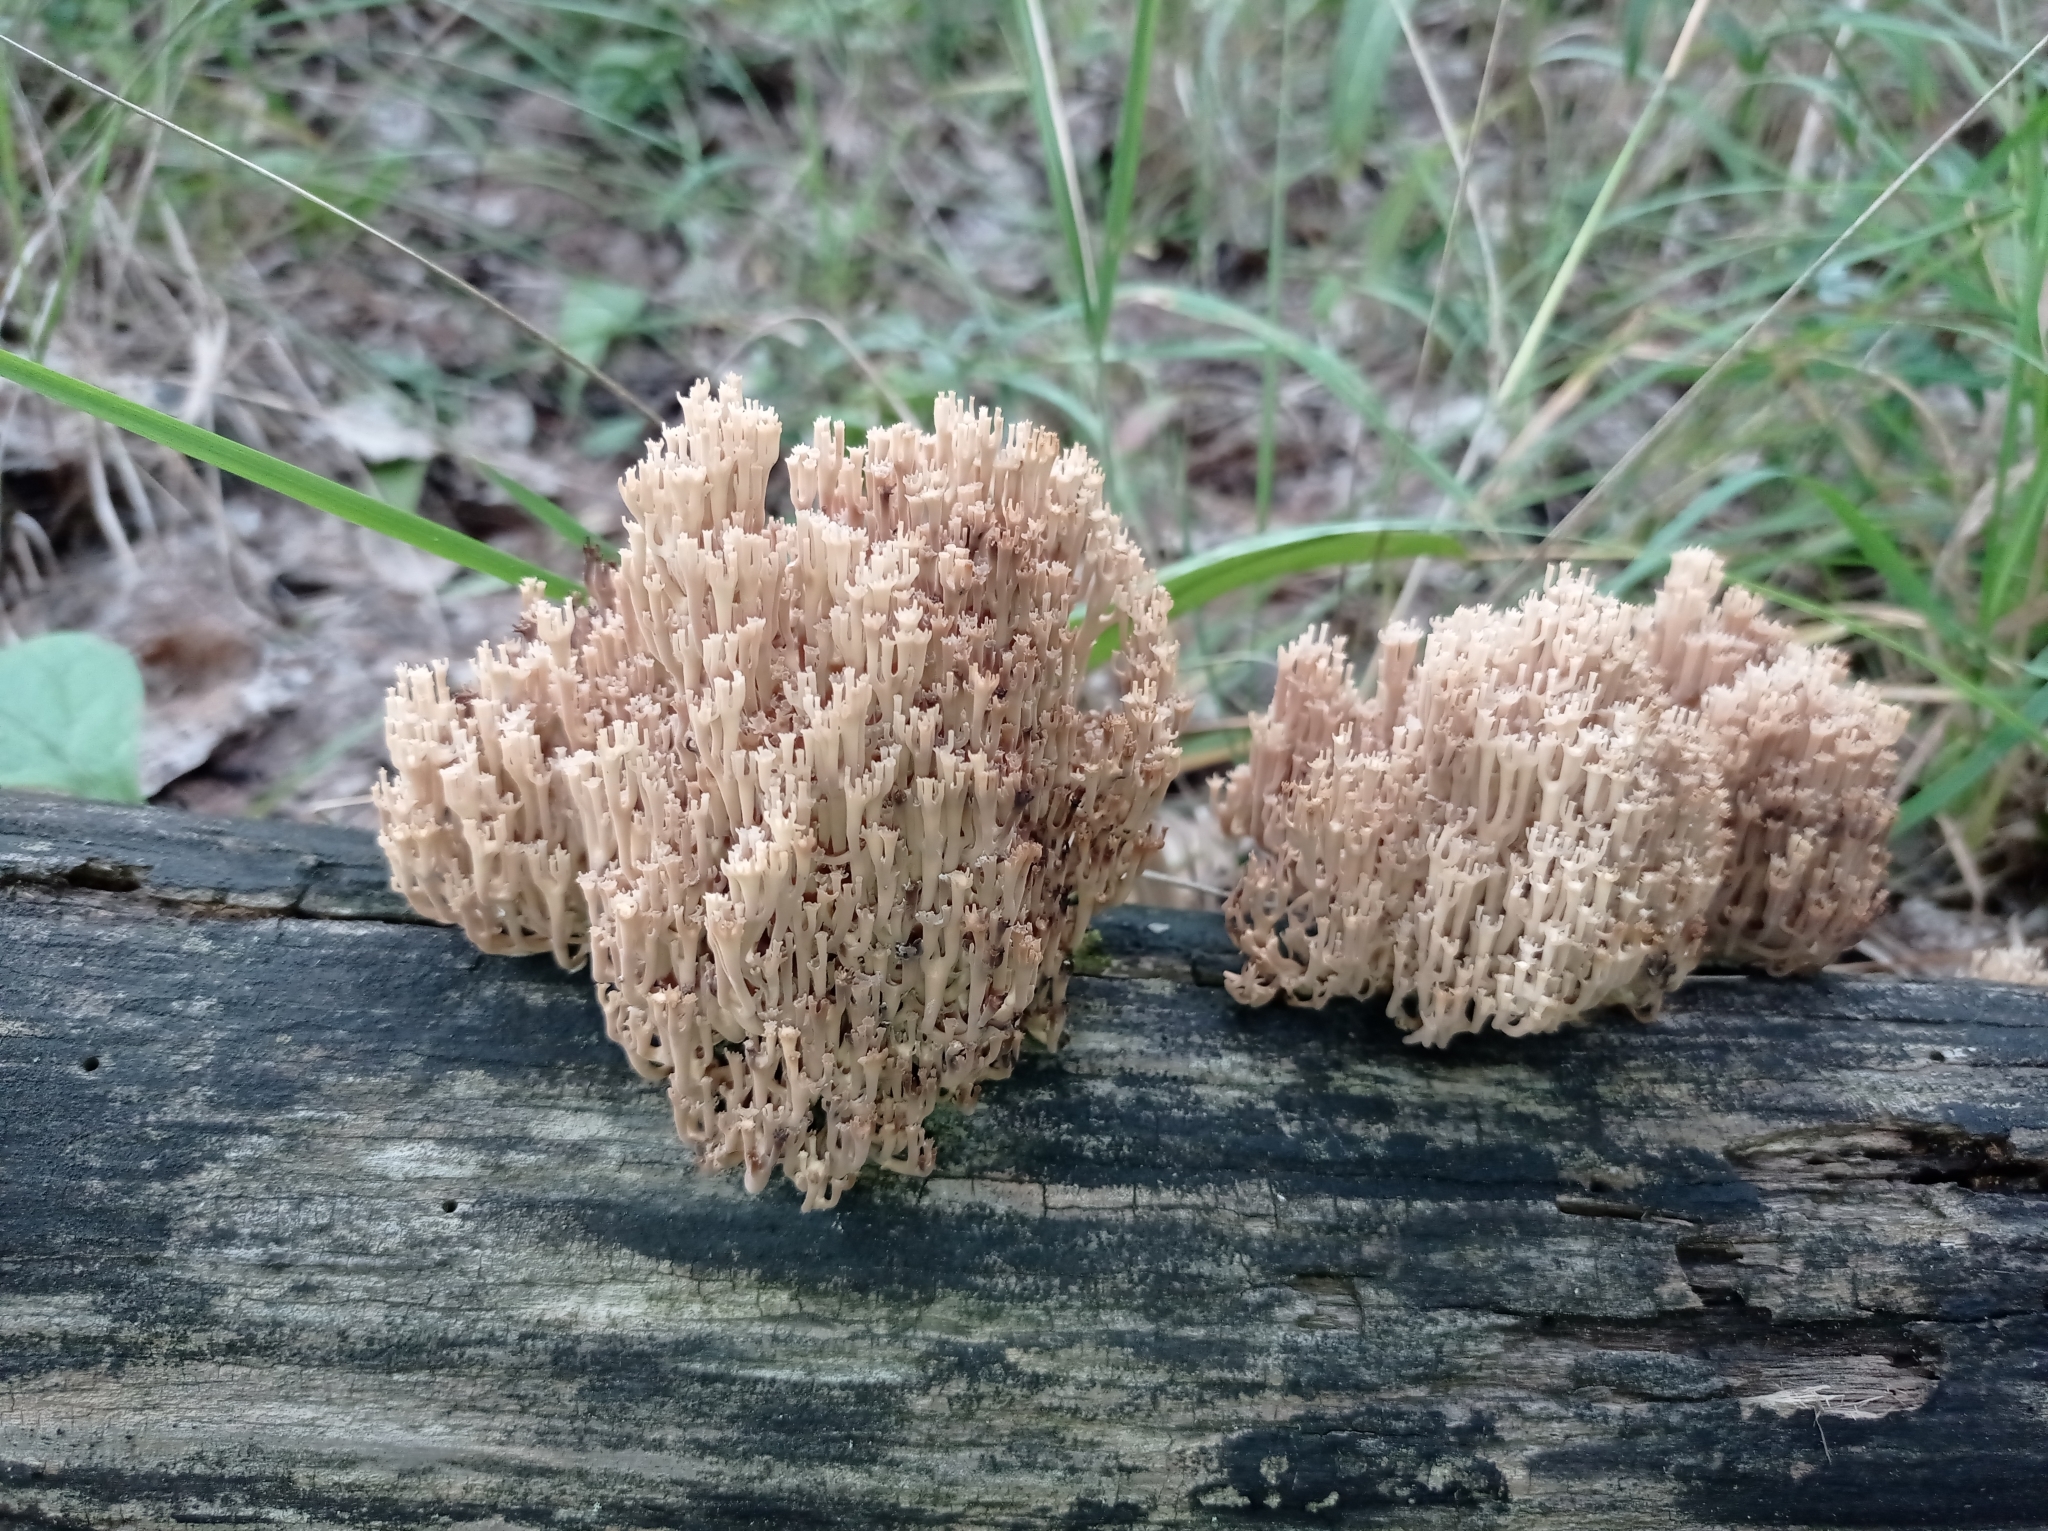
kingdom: Fungi
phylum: Basidiomycota
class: Agaricomycetes
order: Russulales
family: Auriscalpiaceae
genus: Artomyces
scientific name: Artomyces pyxidatus
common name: Crown-tipped coral fungus
